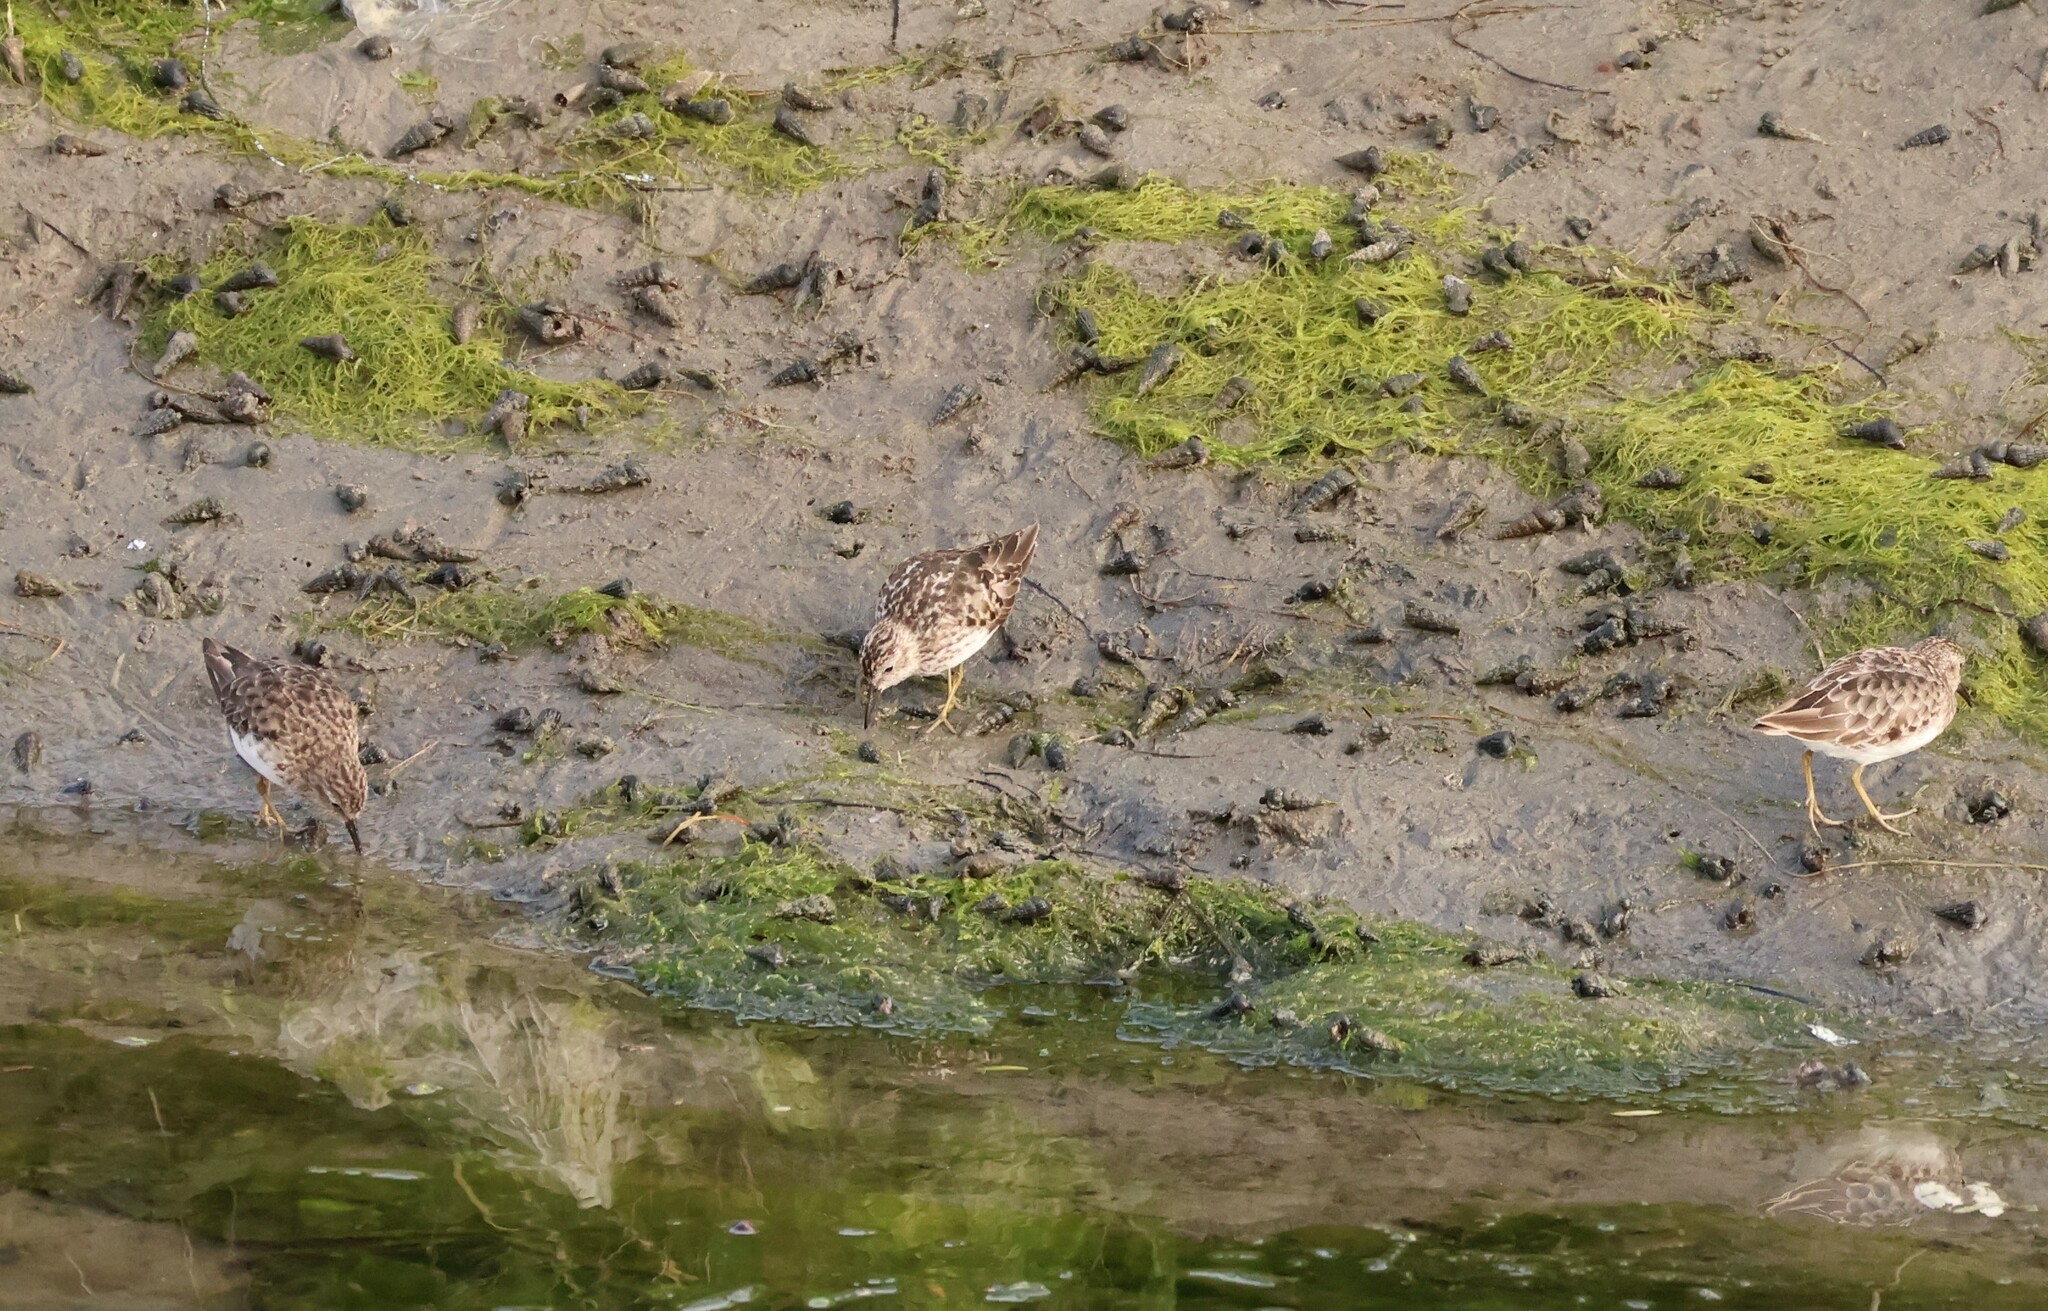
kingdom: Animalia
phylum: Chordata
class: Aves
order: Charadriiformes
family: Scolopacidae
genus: Calidris
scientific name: Calidris minutilla
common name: Least sandpiper
